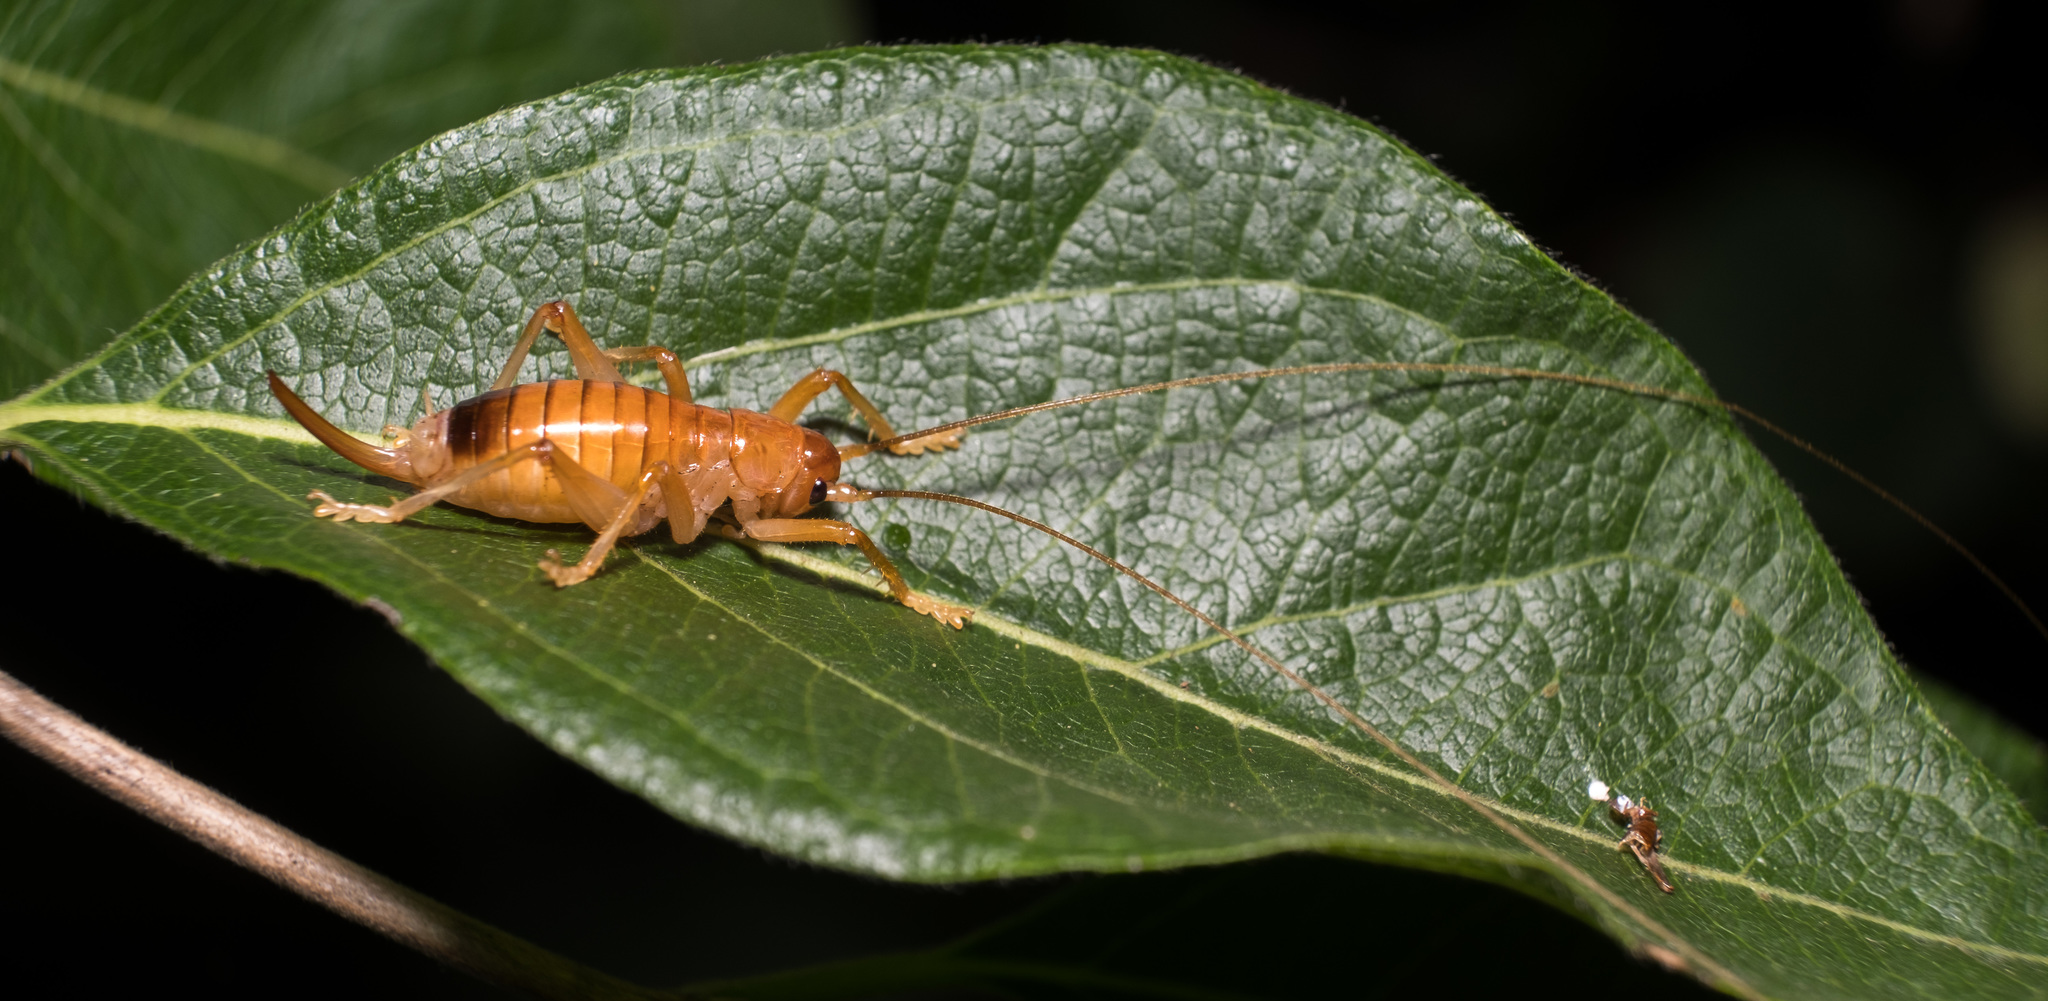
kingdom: Animalia
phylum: Arthropoda
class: Insecta
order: Orthoptera
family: Gryllacrididae
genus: Camptonotus
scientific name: Camptonotus carolinensis
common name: Carolina leaf-roller
